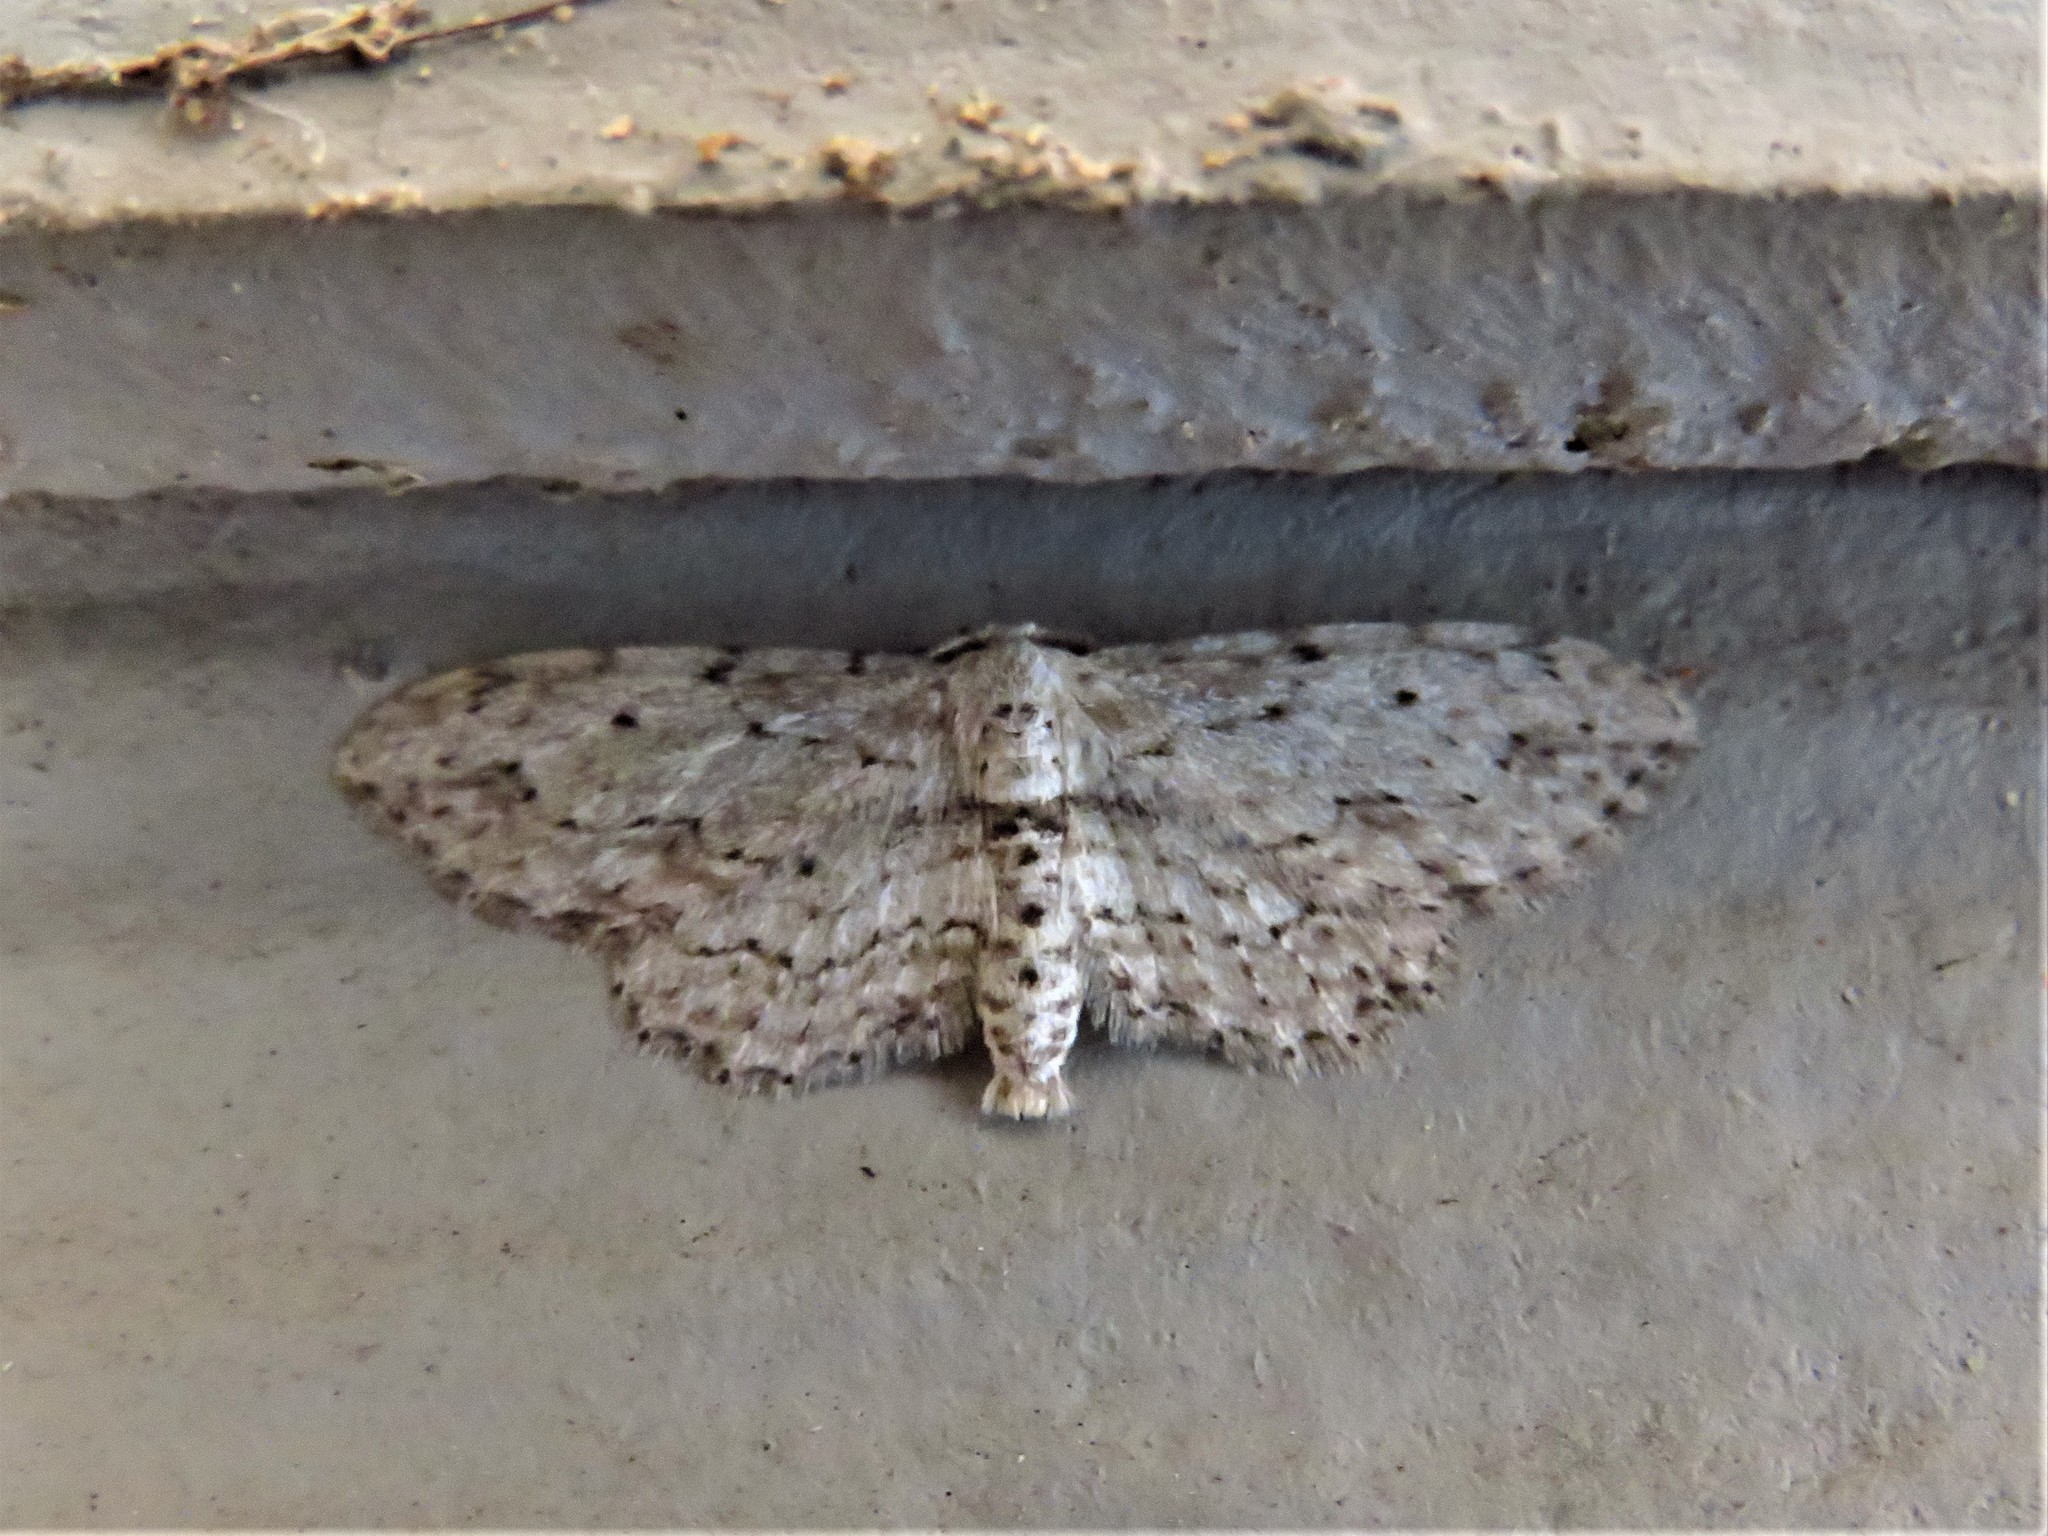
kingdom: Animalia
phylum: Arthropoda
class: Insecta
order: Lepidoptera
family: Geometridae
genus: Pimaphera
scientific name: Pimaphera sparsaria
